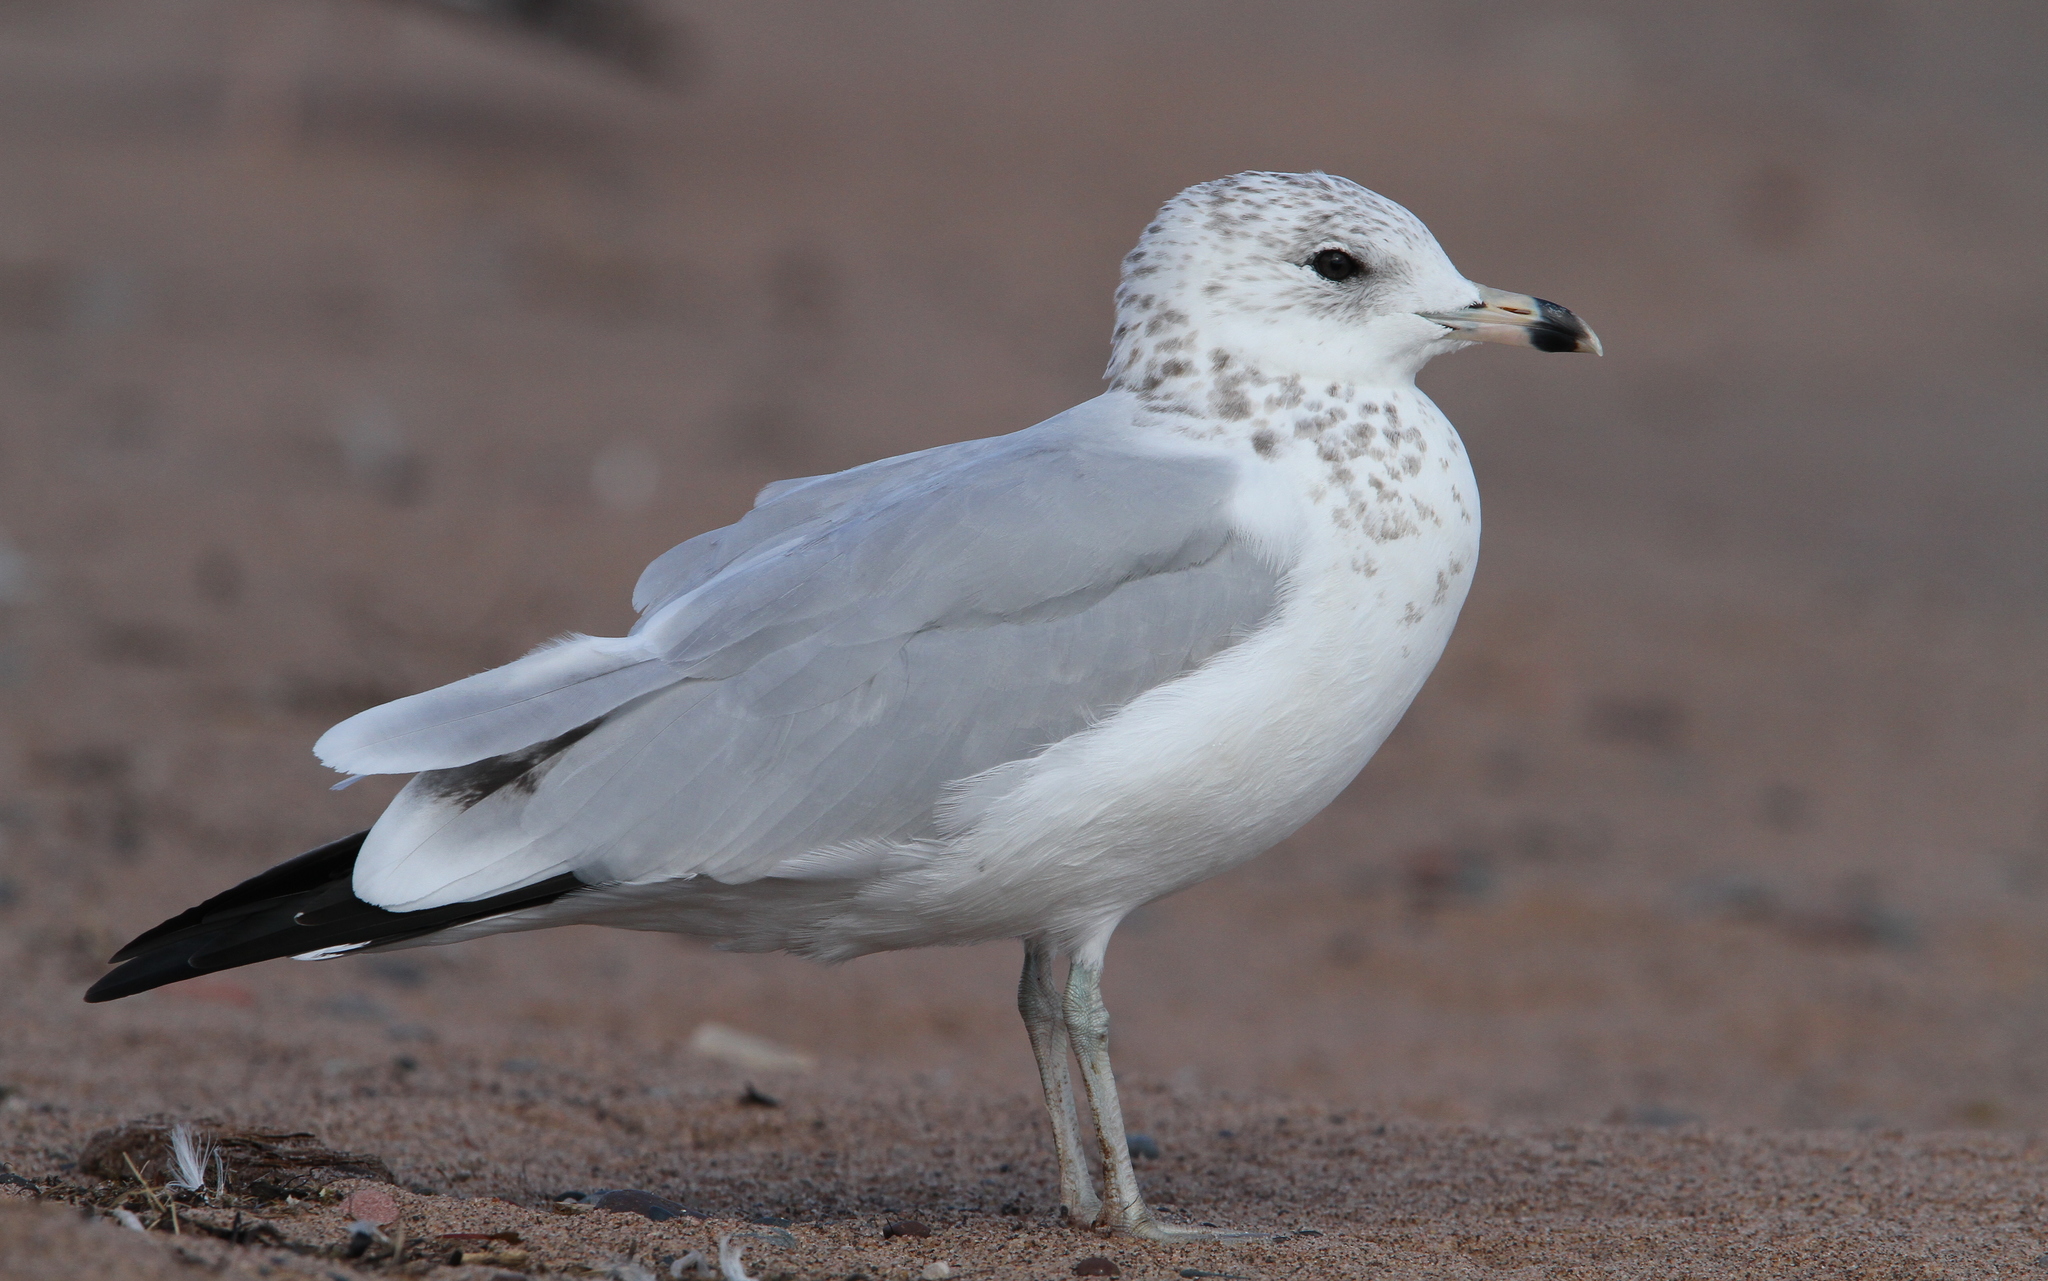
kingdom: Animalia
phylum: Chordata
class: Aves
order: Charadriiformes
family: Laridae
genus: Larus
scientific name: Larus delawarensis
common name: Ring-billed gull
